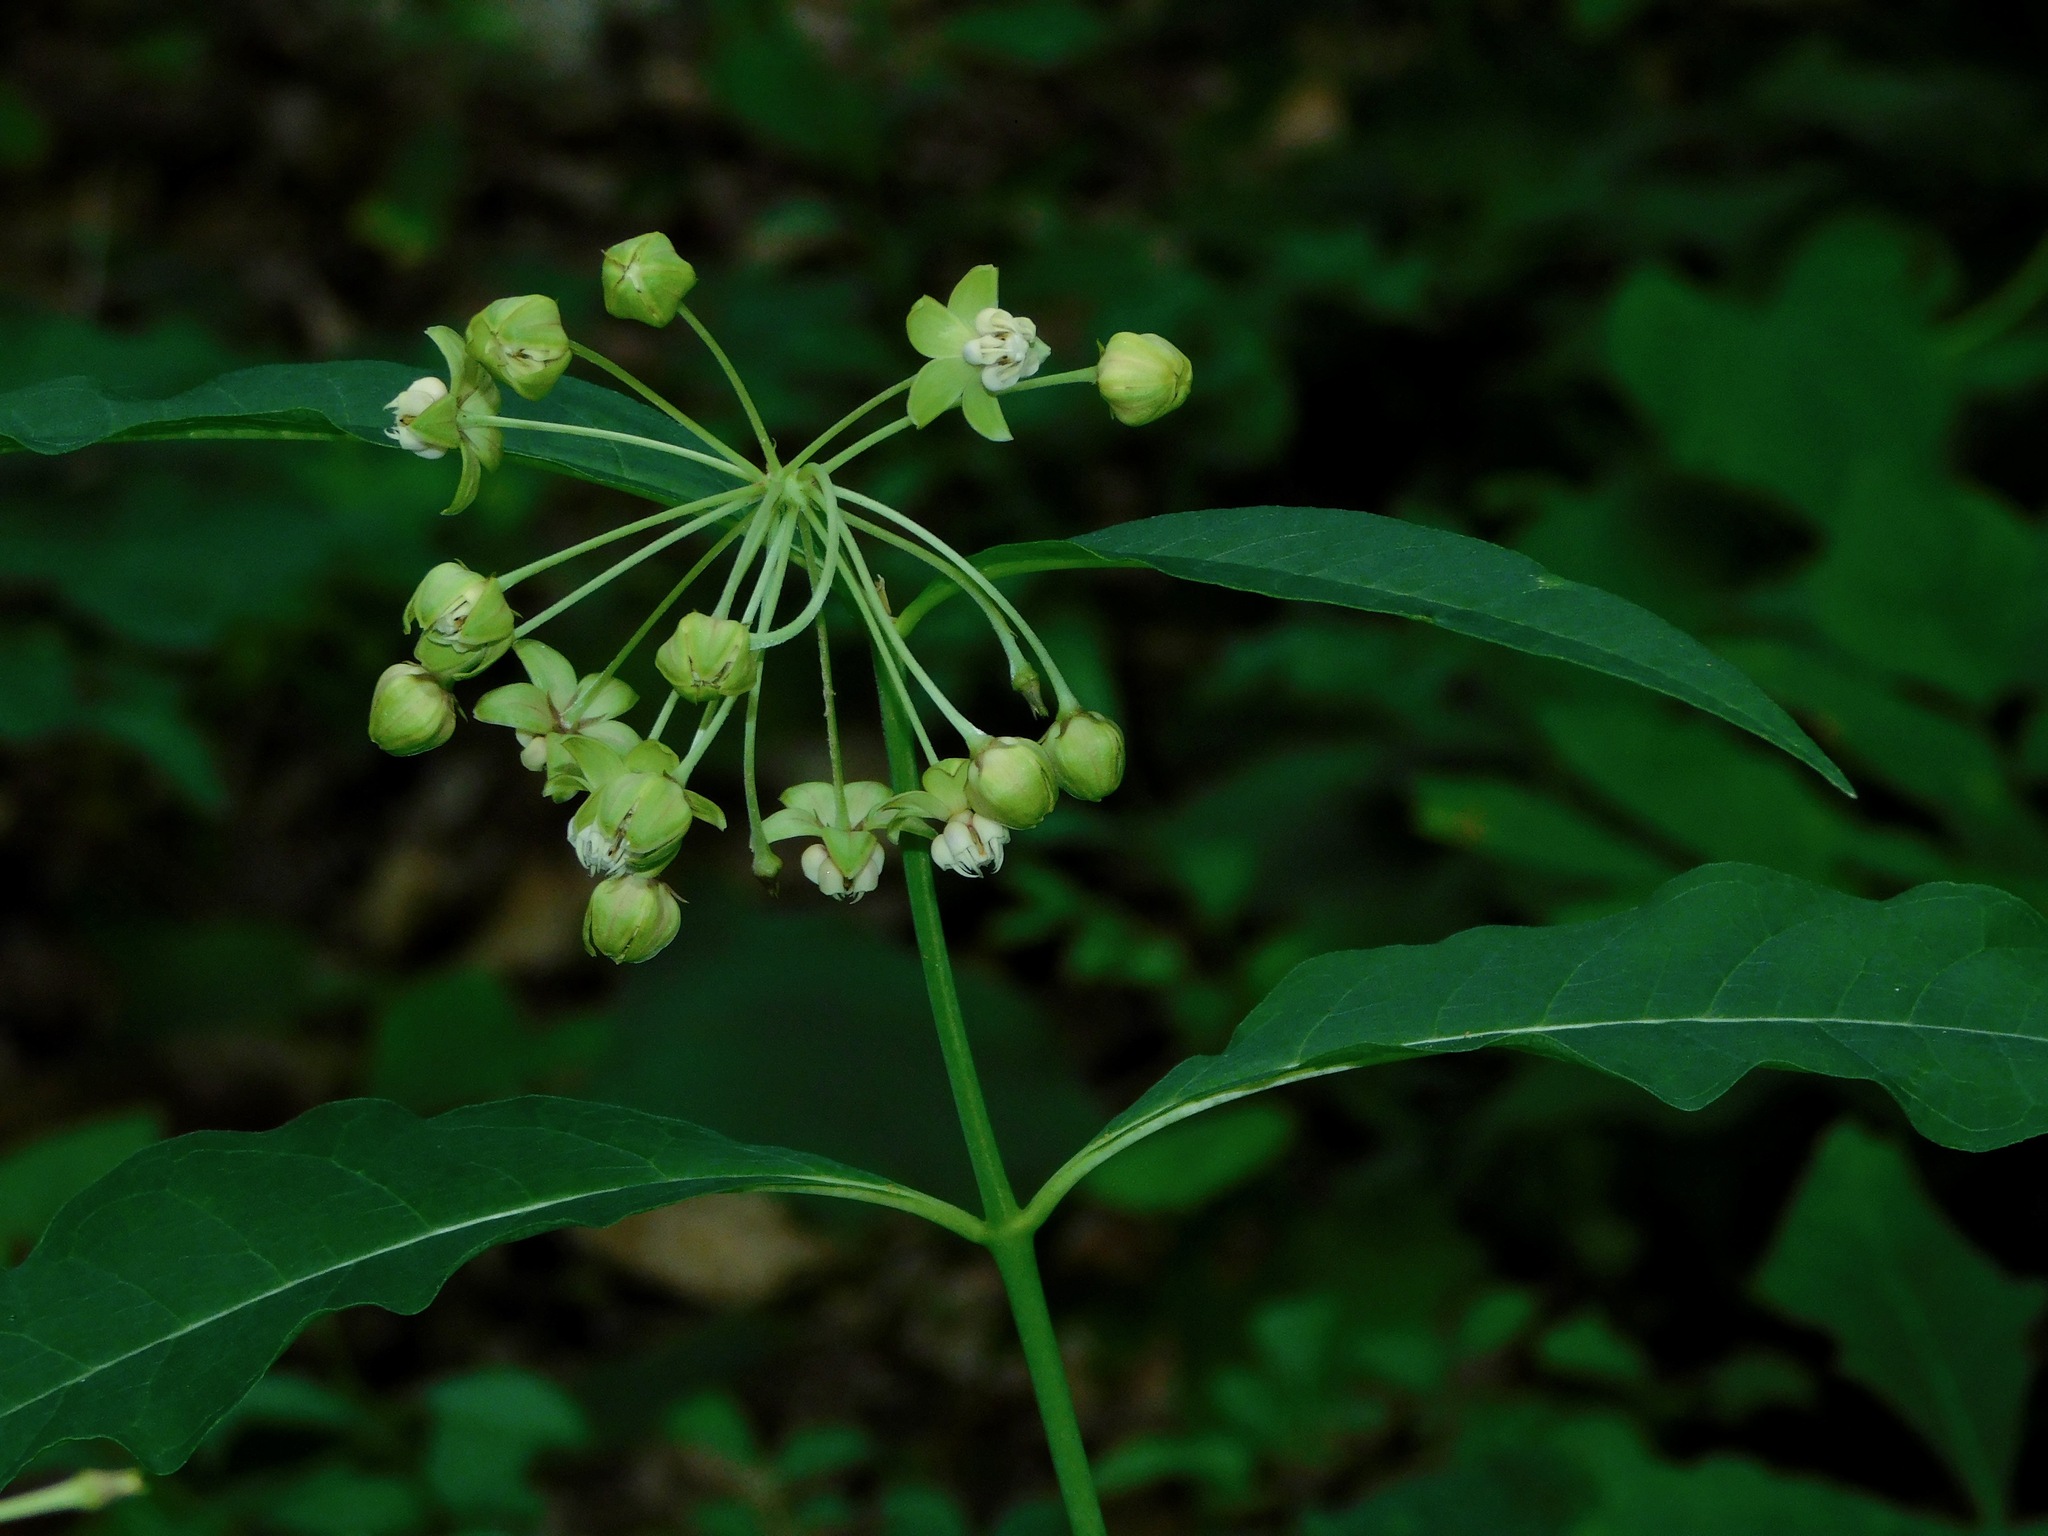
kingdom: Plantae
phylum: Tracheophyta
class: Magnoliopsida
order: Gentianales
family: Apocynaceae
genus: Asclepias
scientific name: Asclepias exaltata
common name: Poke milkweed
